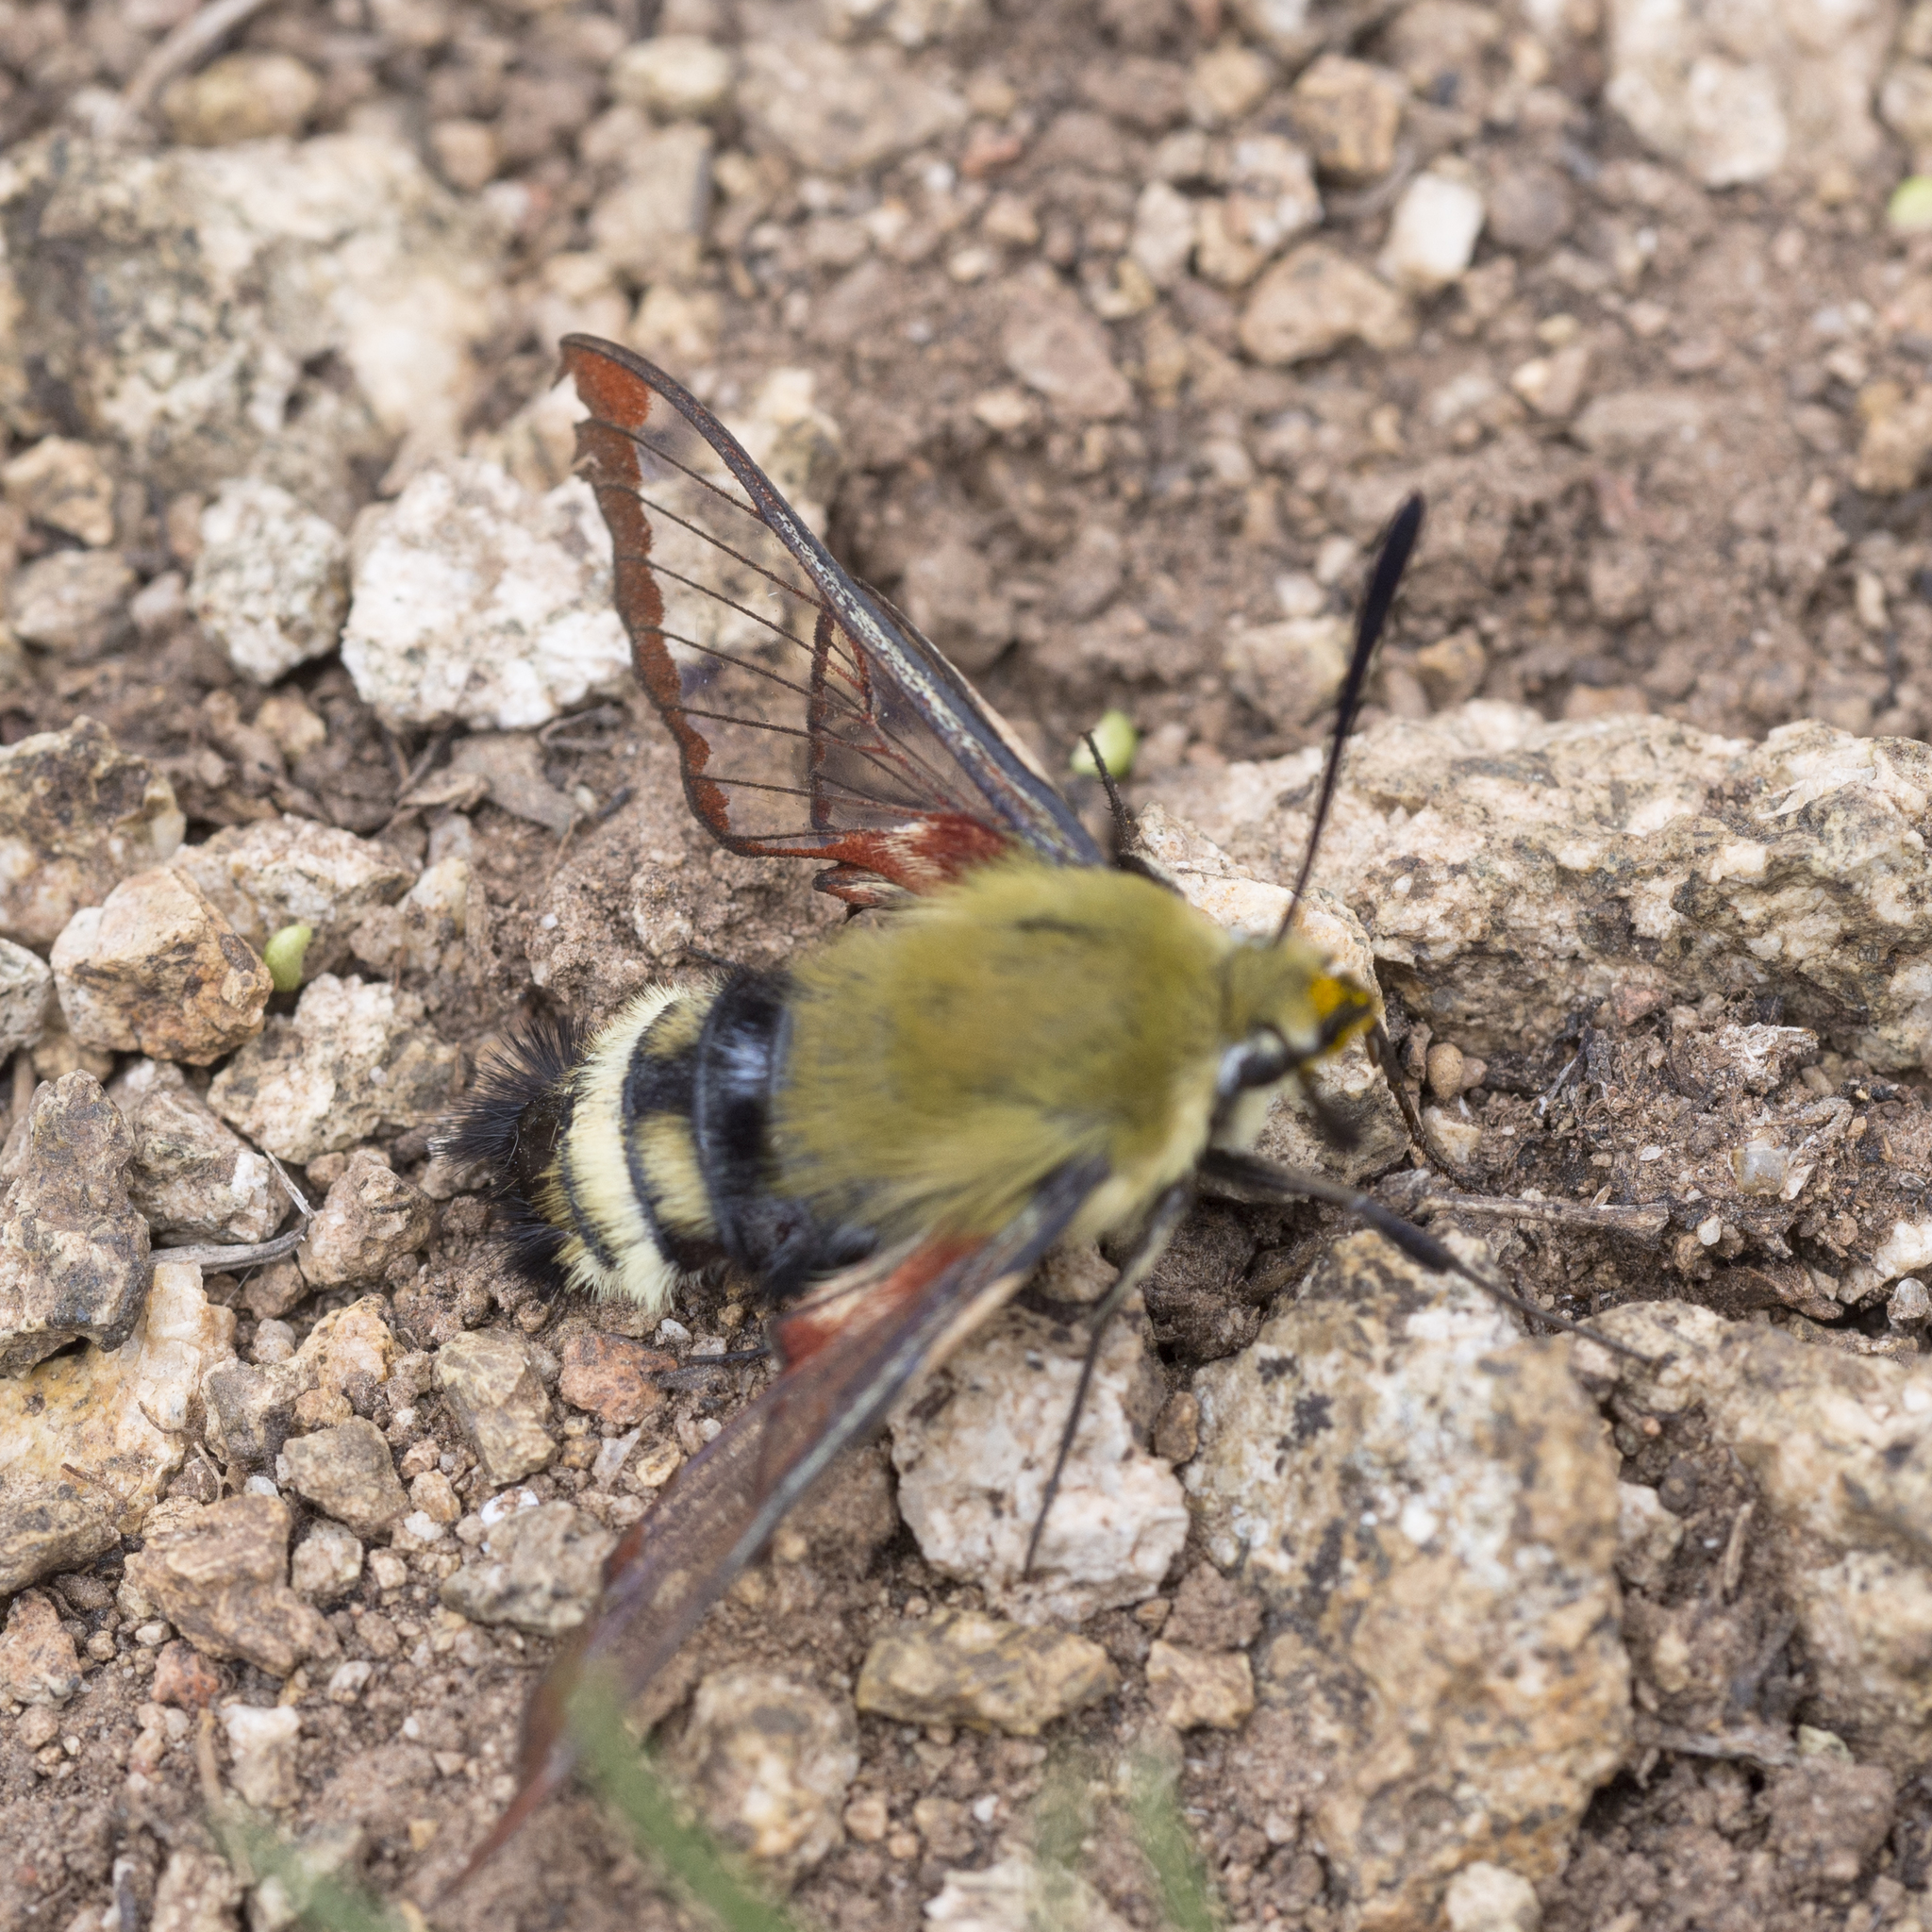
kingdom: Animalia
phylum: Arthropoda
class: Insecta
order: Lepidoptera
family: Sphingidae
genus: Hemaris
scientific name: Hemaris thetis
